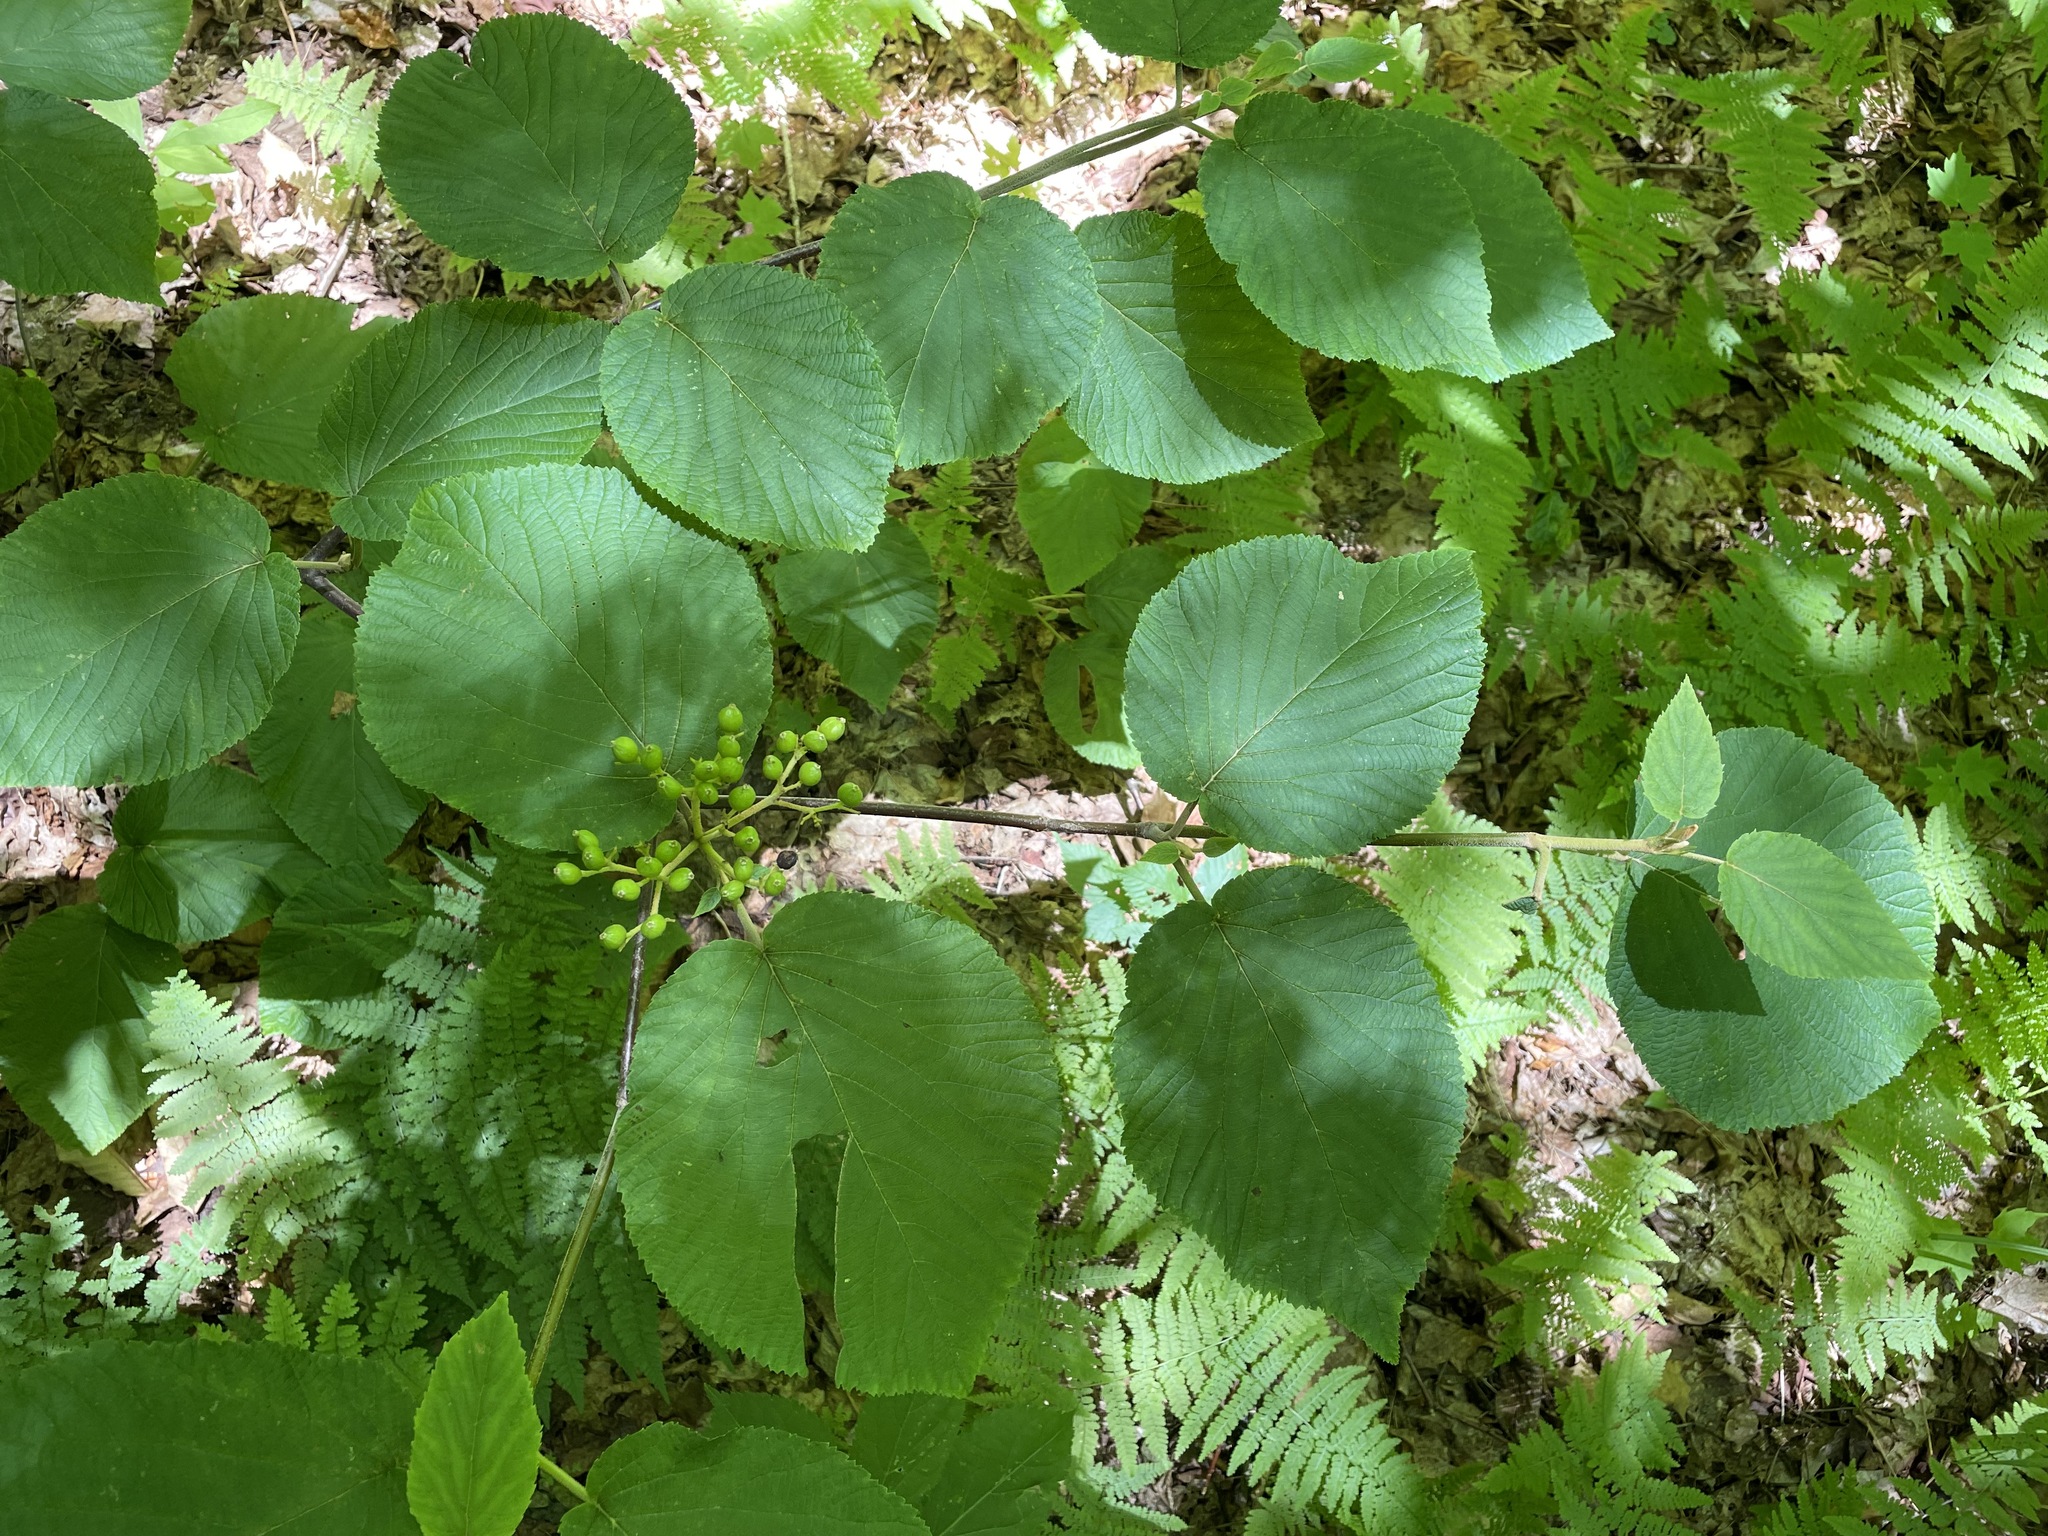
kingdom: Plantae
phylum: Tracheophyta
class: Magnoliopsida
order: Dipsacales
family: Viburnaceae
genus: Viburnum
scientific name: Viburnum lantanoides
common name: Hobblebush
